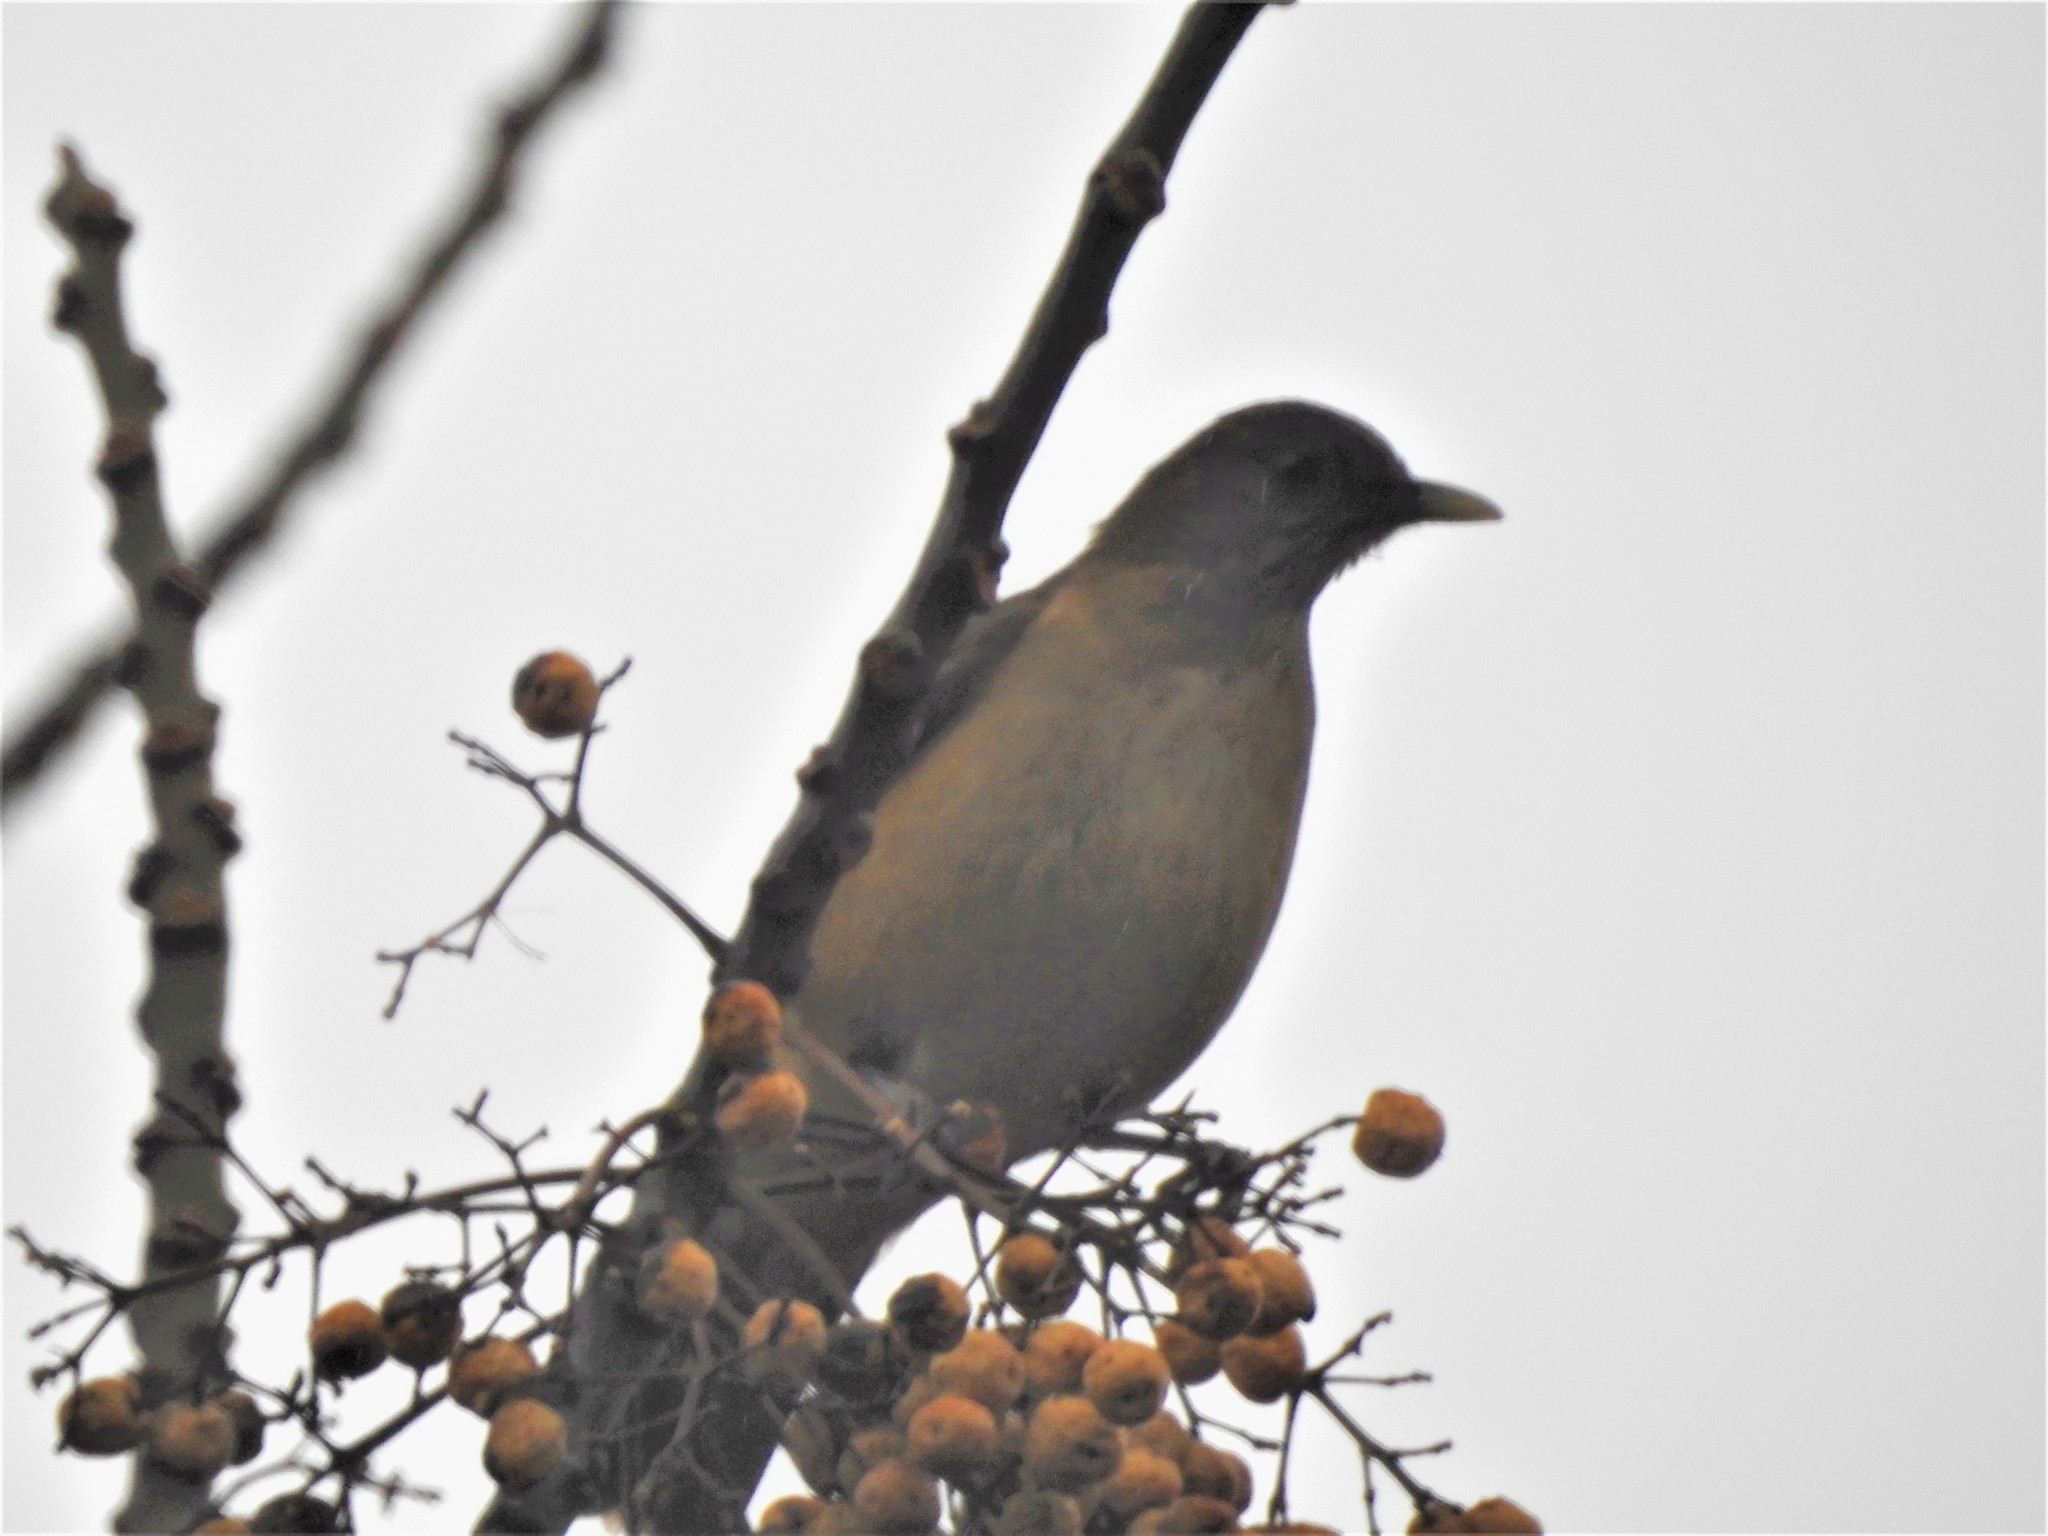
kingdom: Animalia
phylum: Chordata
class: Aves
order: Passeriformes
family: Turdidae
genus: Turdus
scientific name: Turdus grayi
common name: Clay-colored thrush
